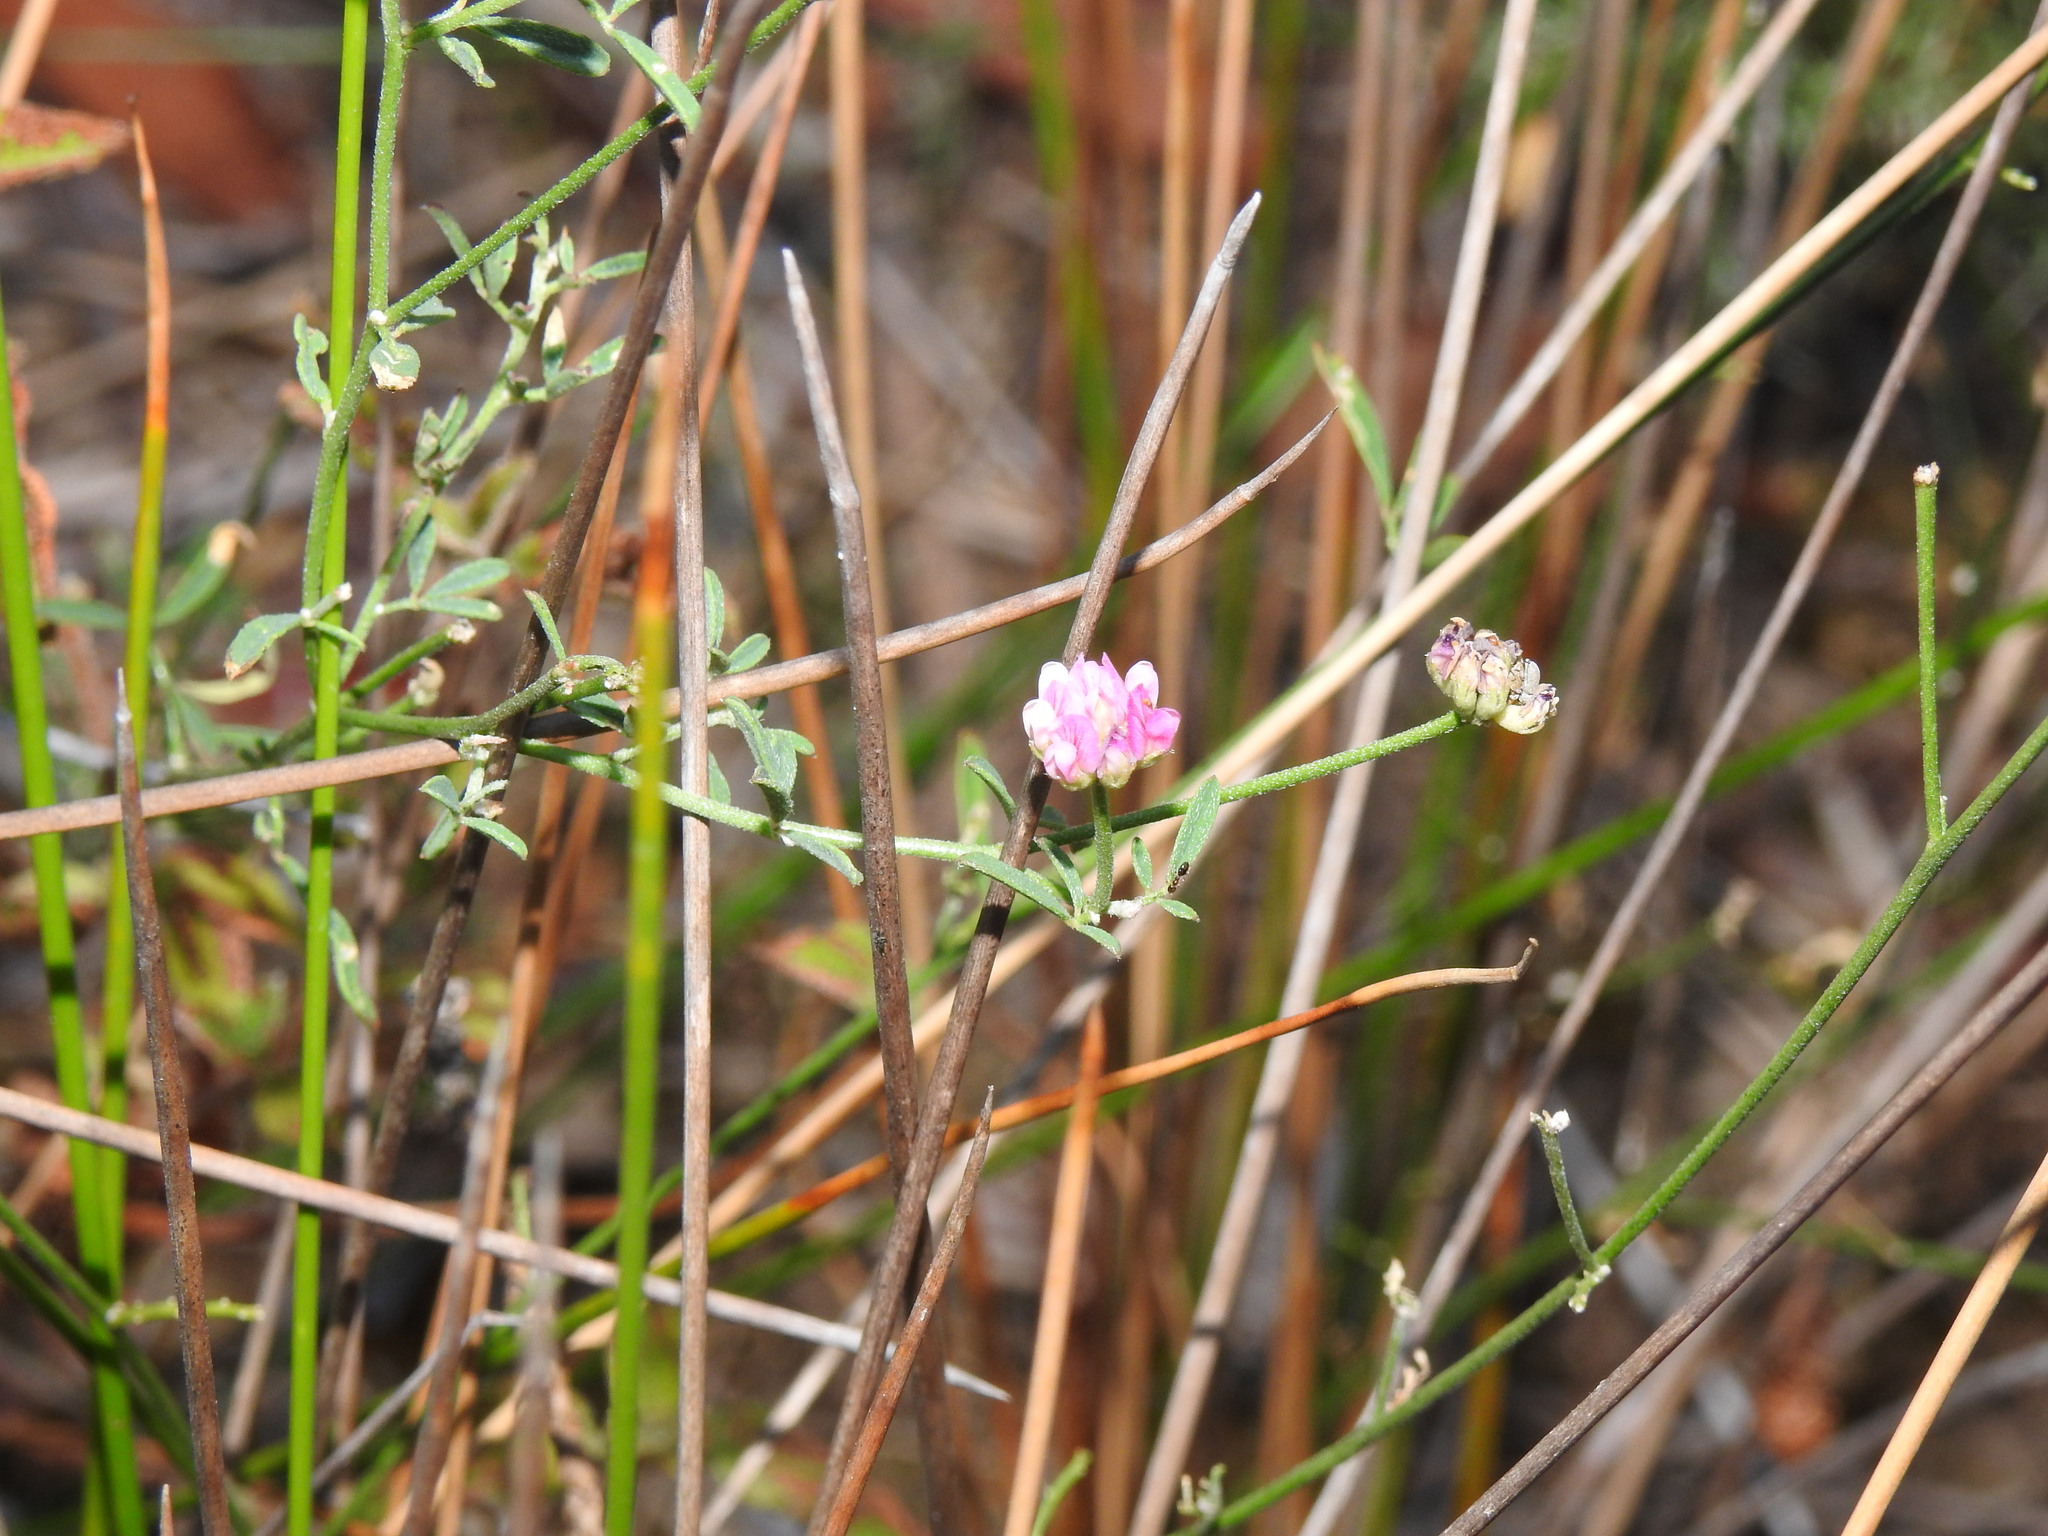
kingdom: Plantae
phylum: Tracheophyta
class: Magnoliopsida
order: Fabales
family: Fabaceae
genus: Dorycnopsis
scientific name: Dorycnopsis gerardi
